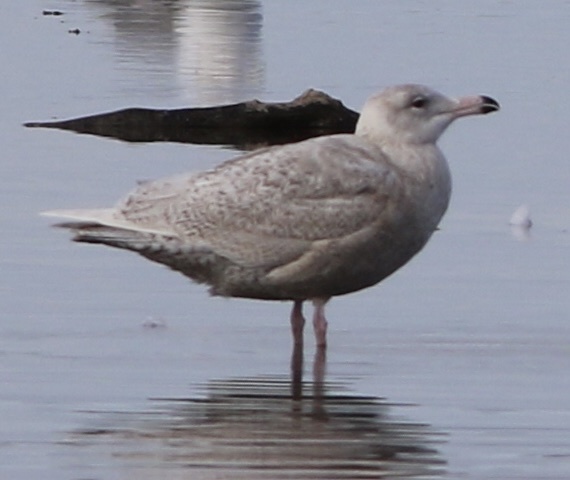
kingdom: Animalia
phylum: Chordata
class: Aves
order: Charadriiformes
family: Laridae
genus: Larus
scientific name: Larus hyperboreus
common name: Glaucous gull
